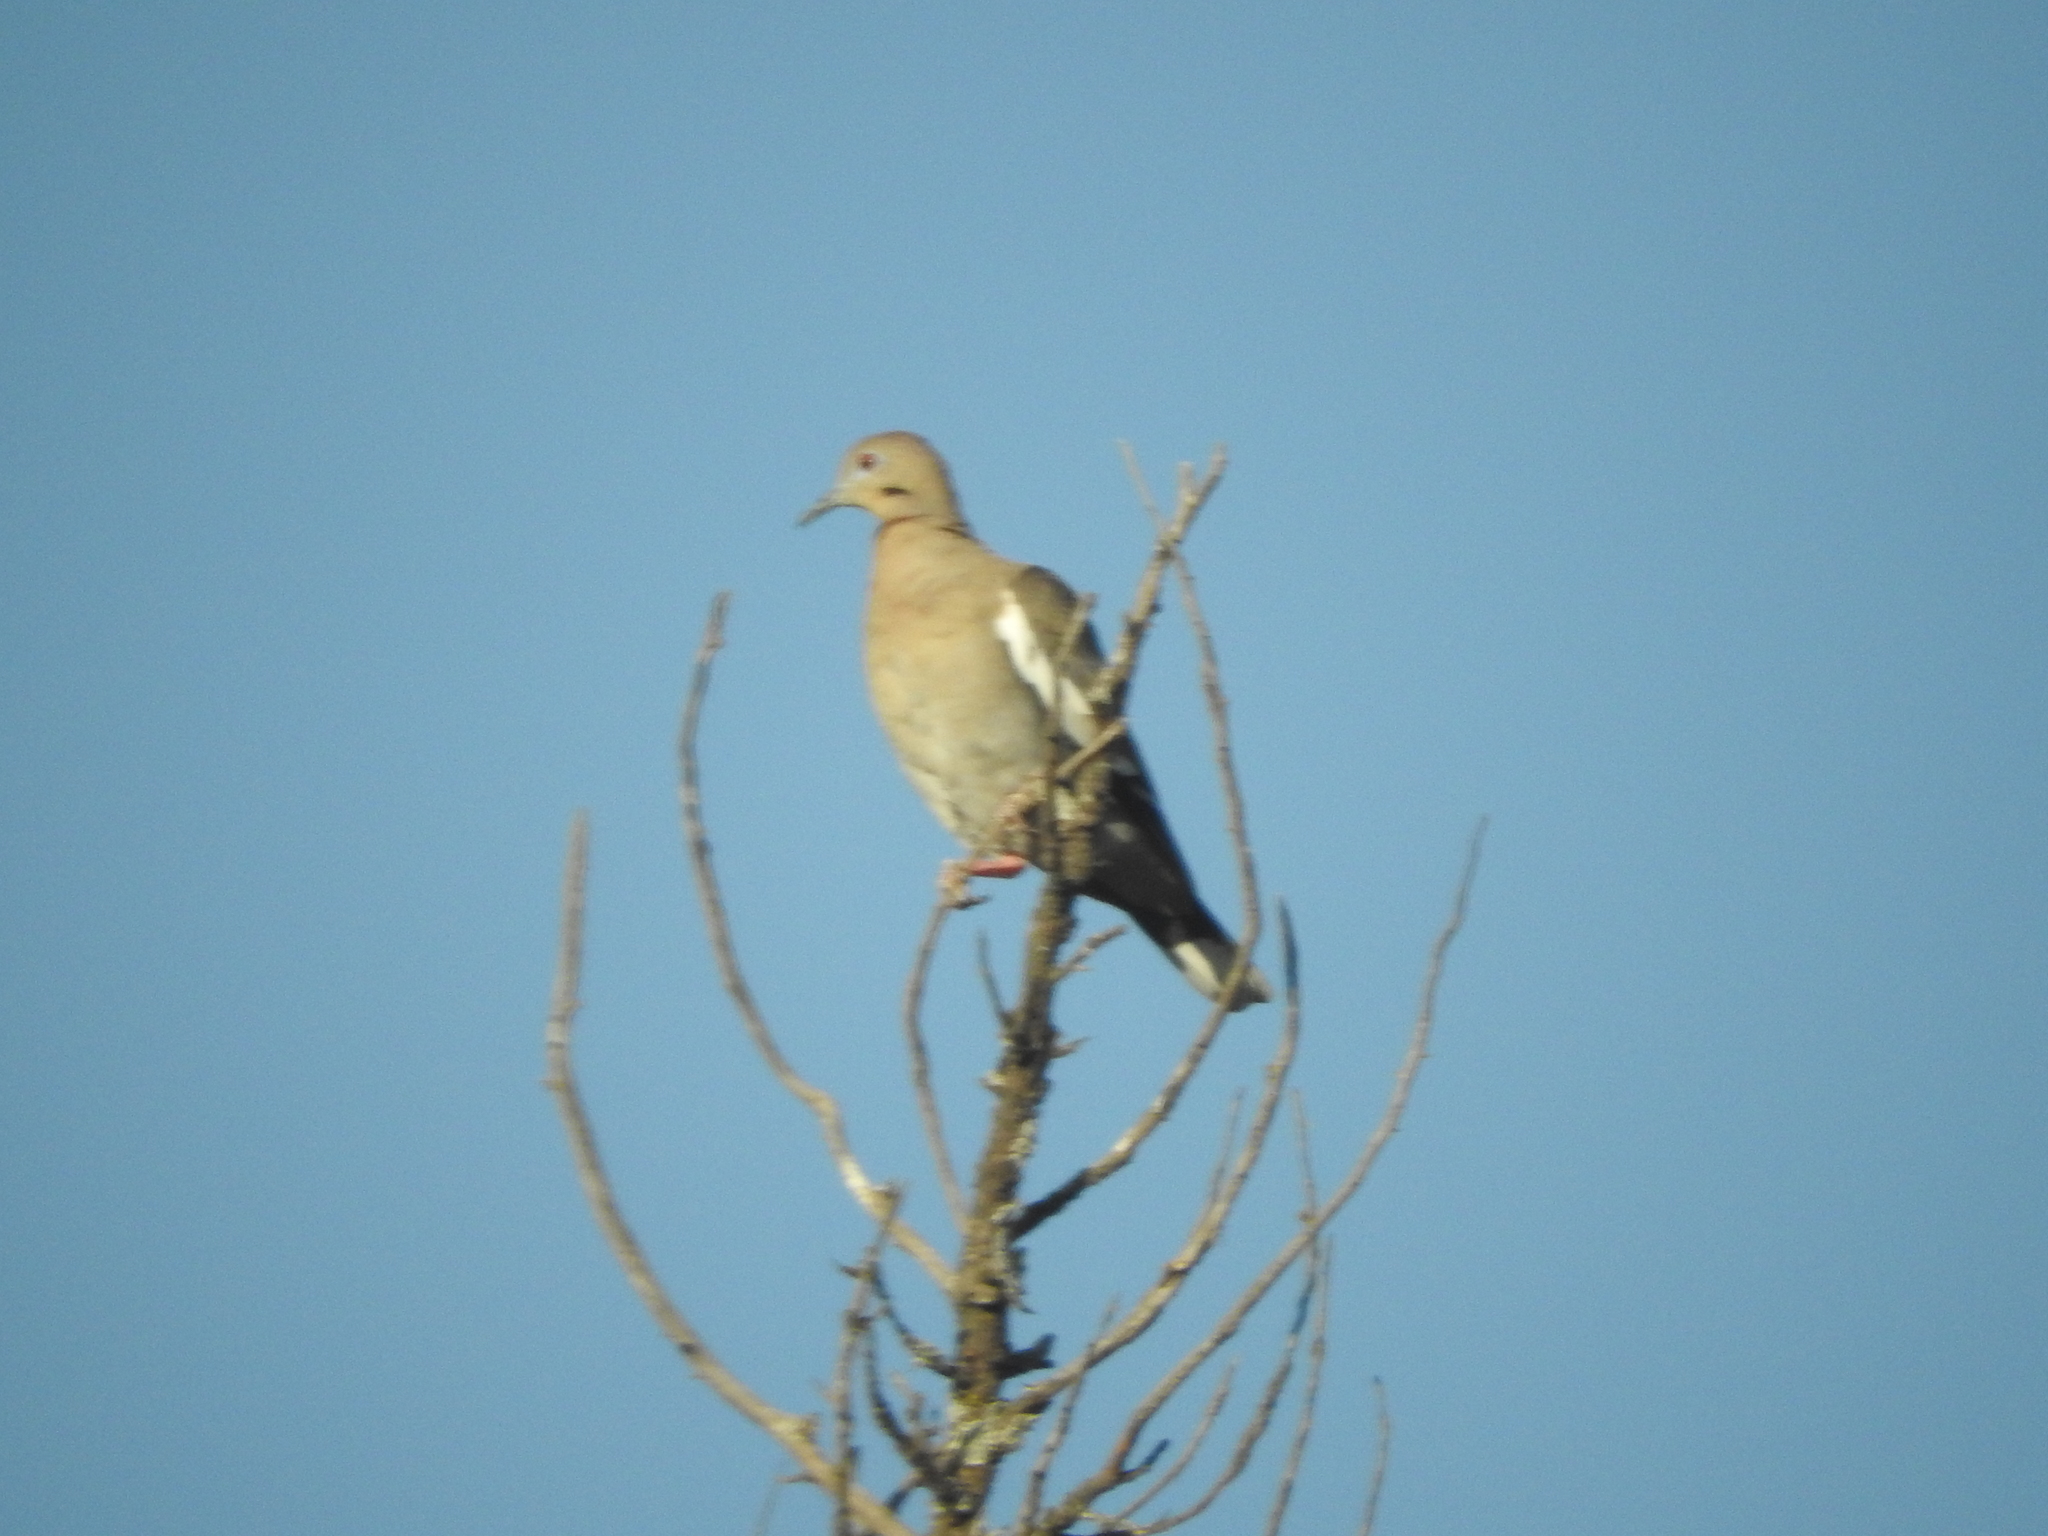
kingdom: Animalia
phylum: Chordata
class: Aves
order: Columbiformes
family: Columbidae
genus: Zenaida
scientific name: Zenaida asiatica
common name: White-winged dove
